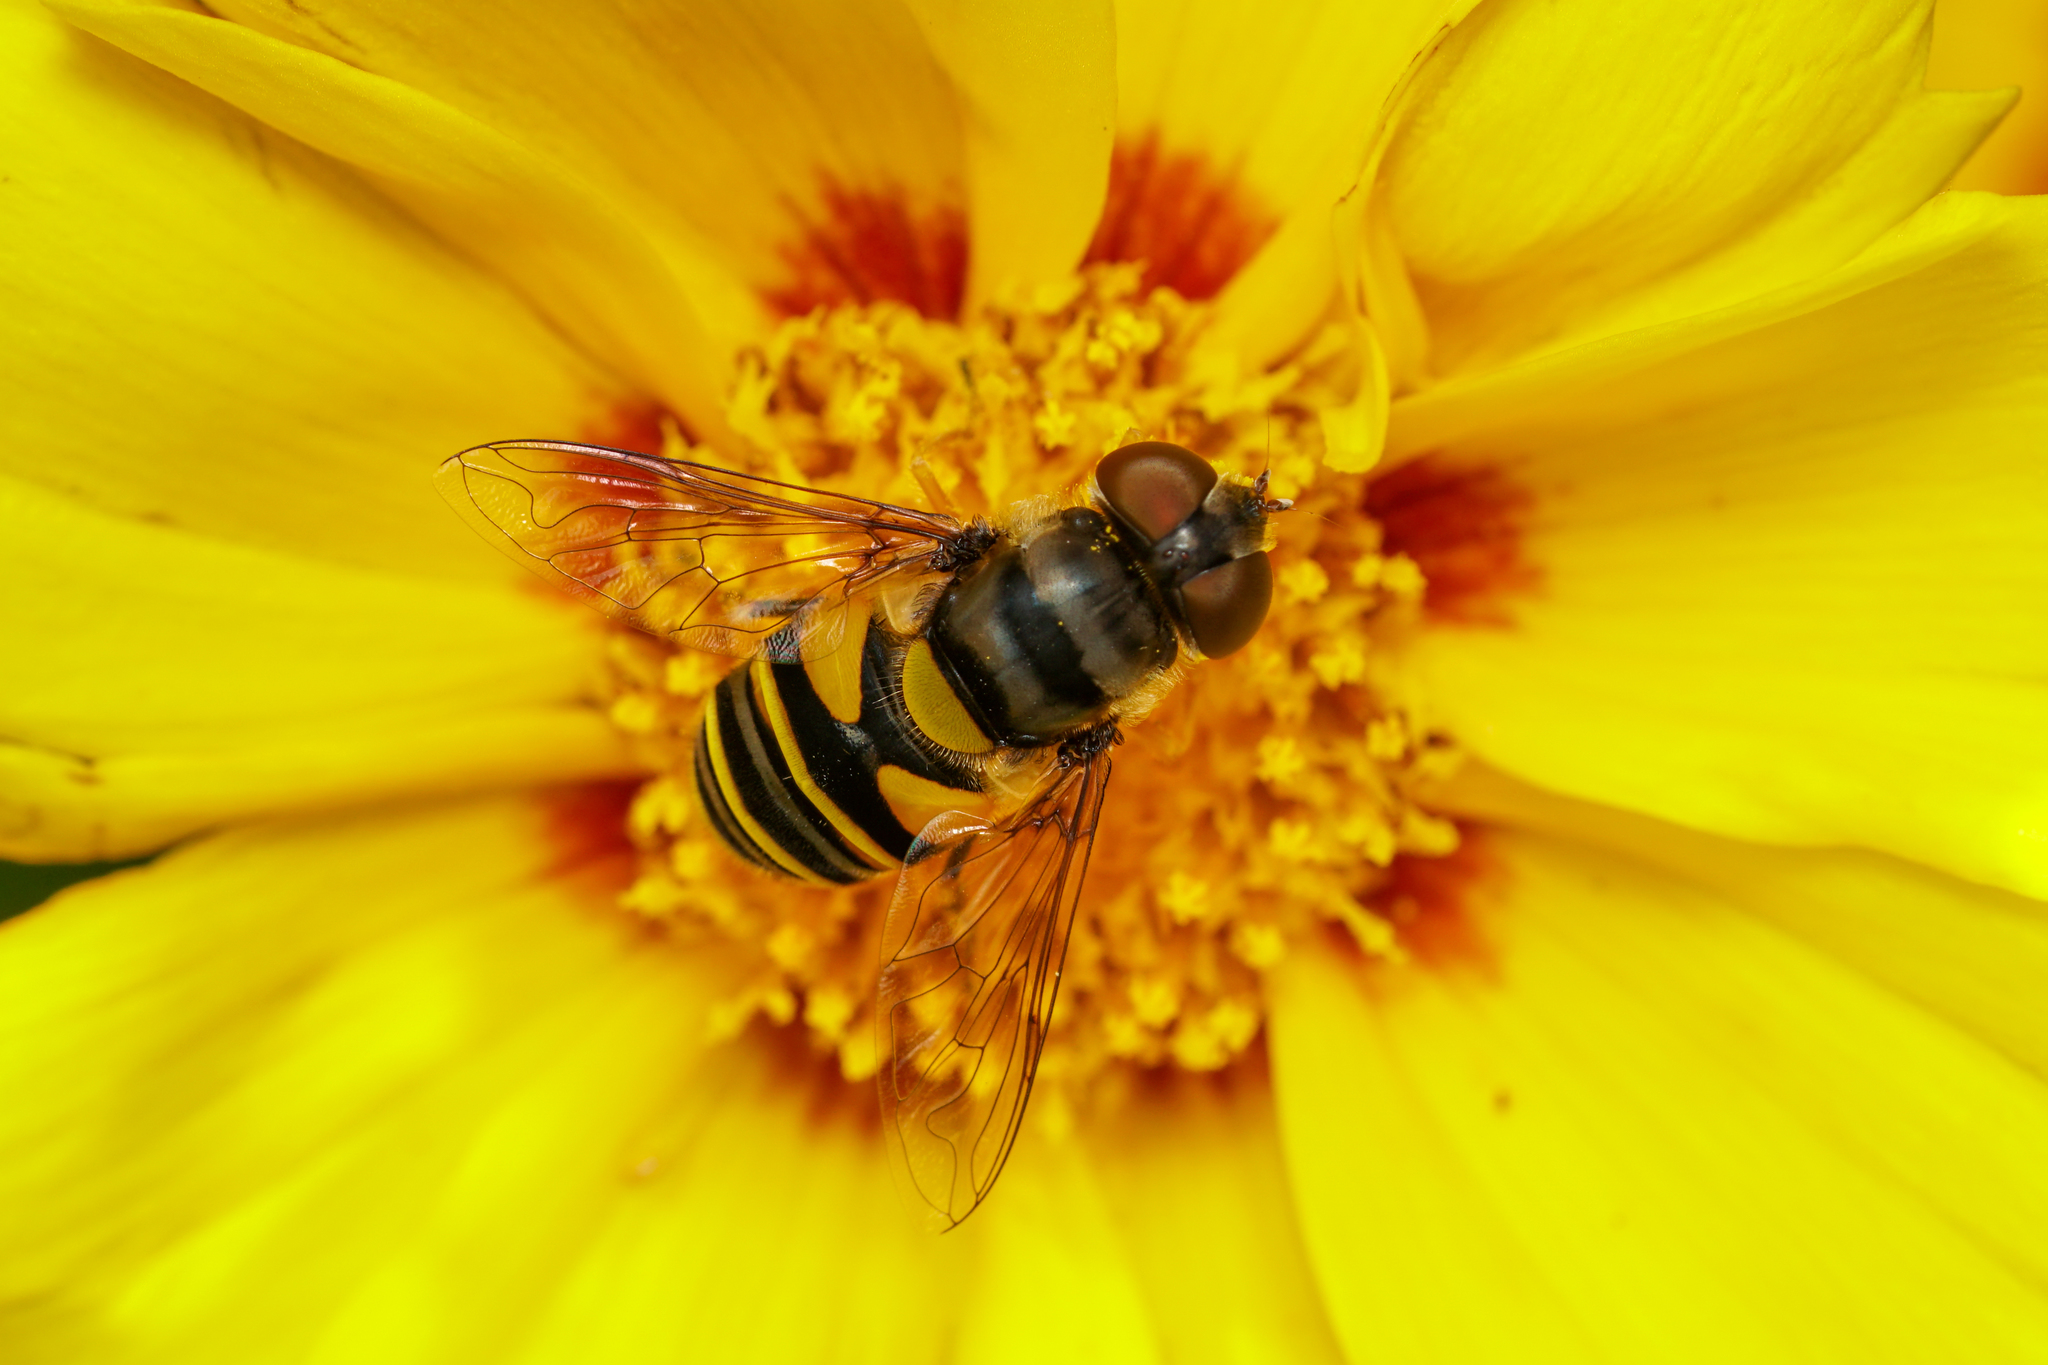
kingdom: Animalia
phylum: Arthropoda
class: Insecta
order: Diptera
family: Syrphidae
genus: Eristalis
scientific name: Eristalis transversa
